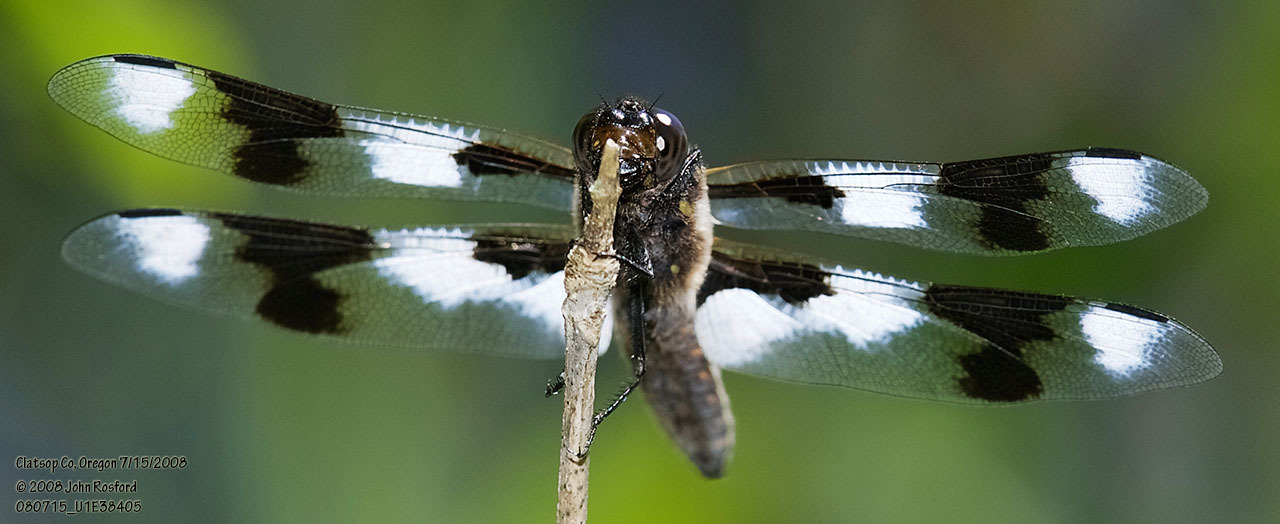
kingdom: Animalia
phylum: Arthropoda
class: Insecta
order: Odonata
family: Libellulidae
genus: Libellula
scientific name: Libellula forensis
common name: Eight-spotted skimmer
